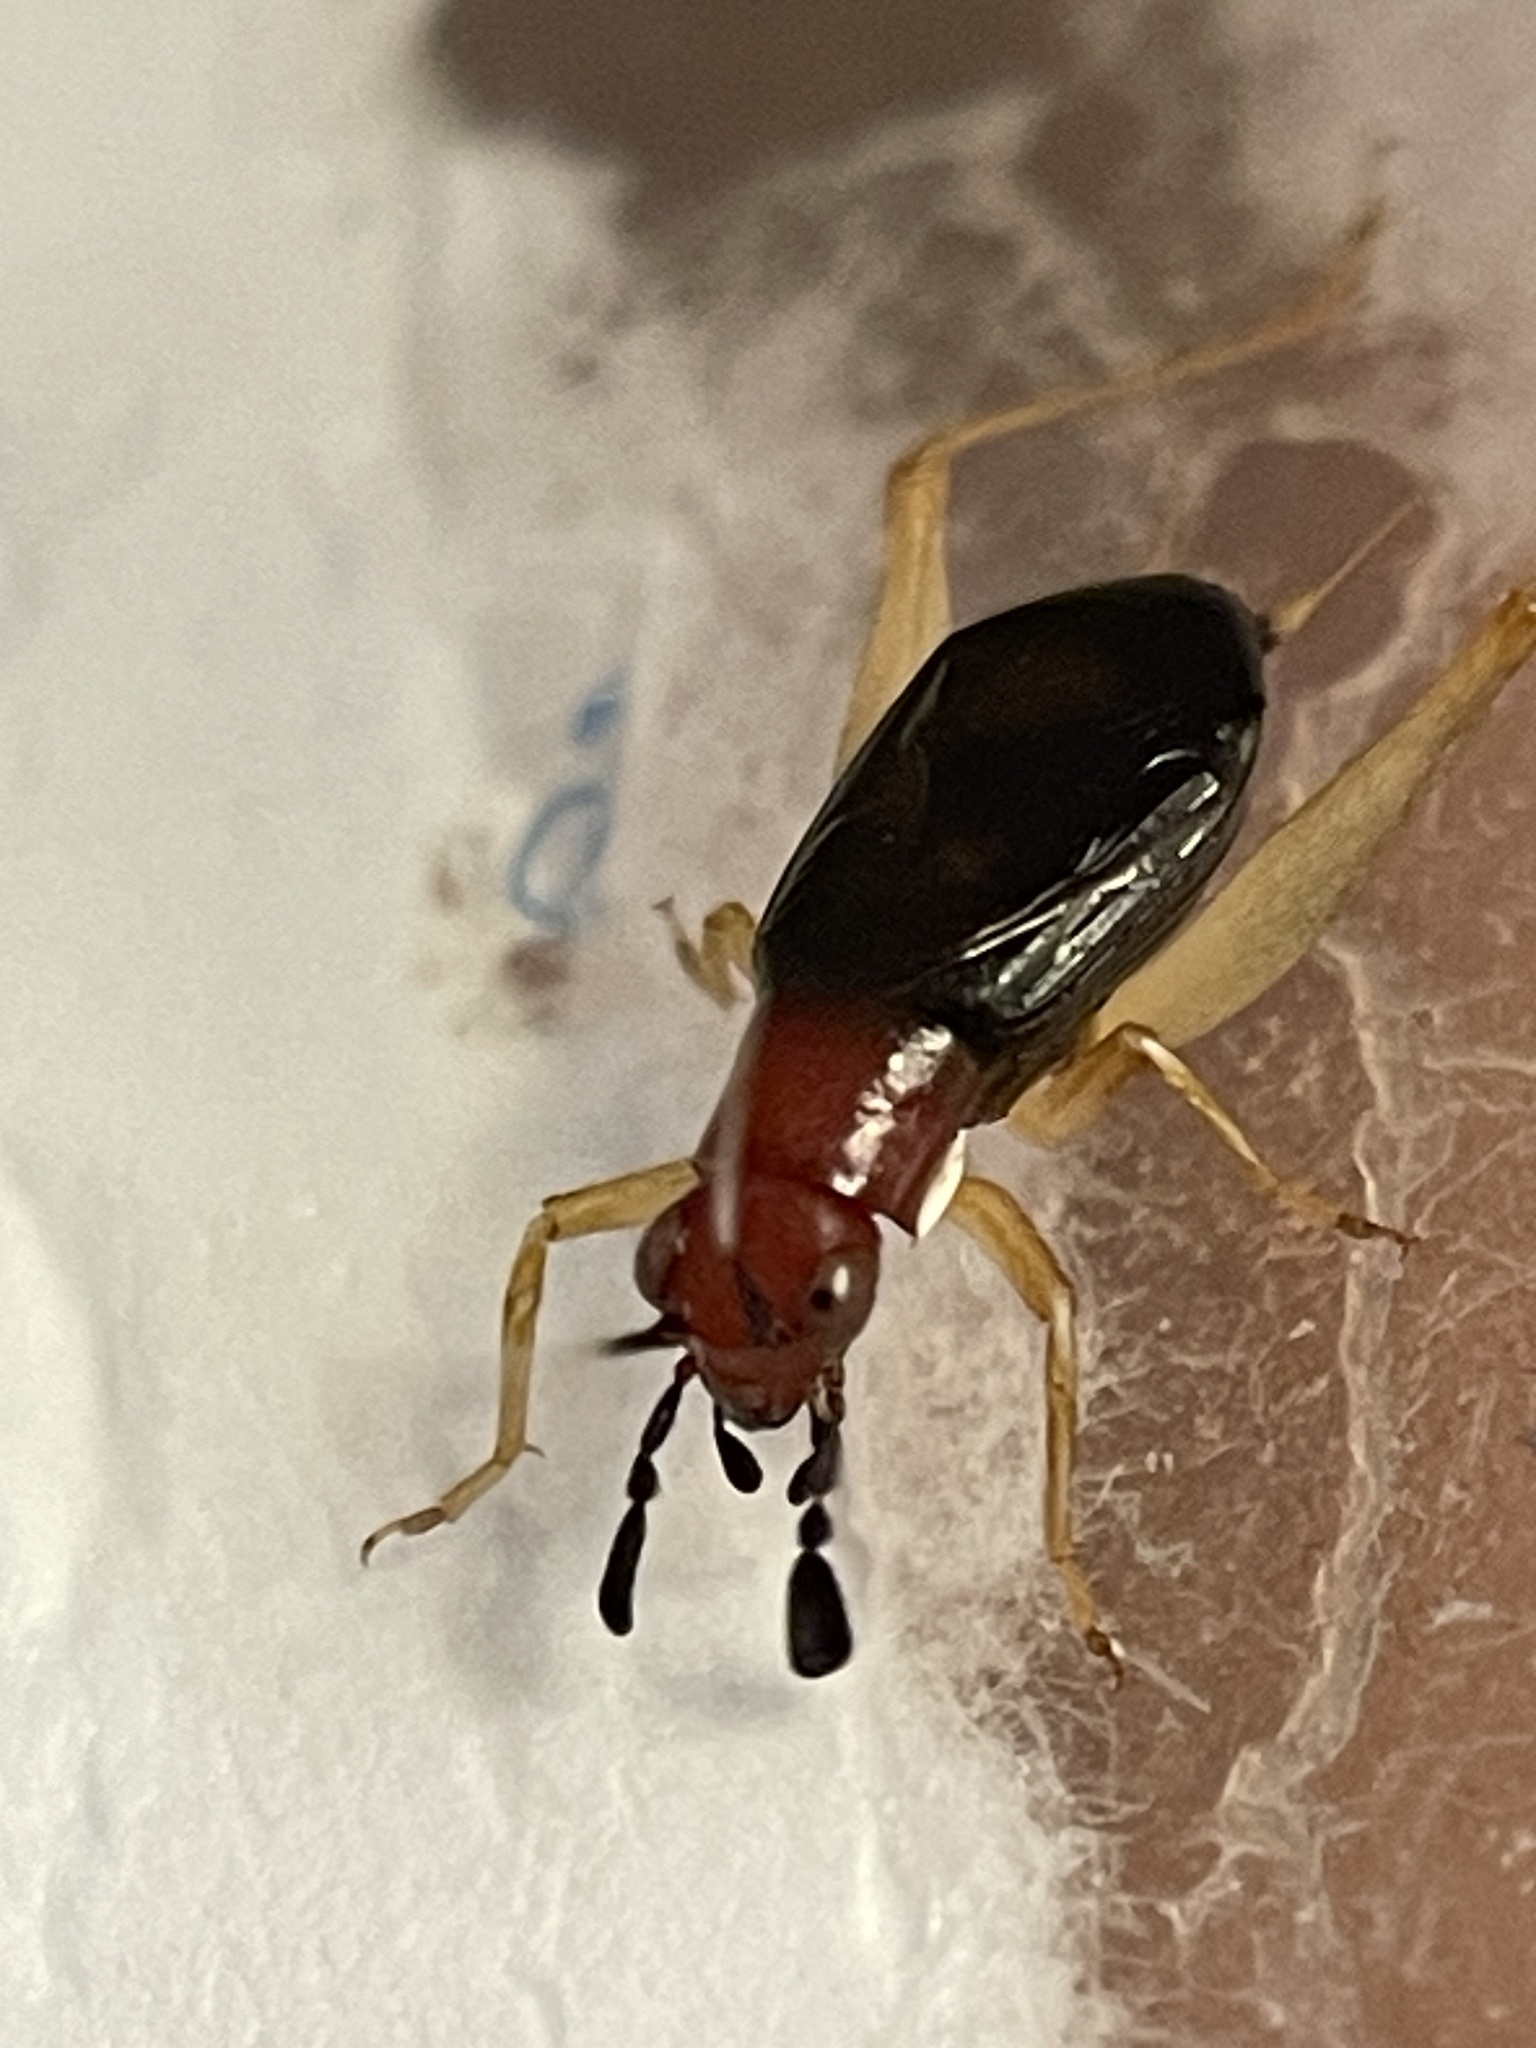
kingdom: Animalia
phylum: Arthropoda
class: Insecta
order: Orthoptera
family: Trigonidiidae
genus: Phyllopalpus
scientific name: Phyllopalpus pulchellus
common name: Handsome trig
